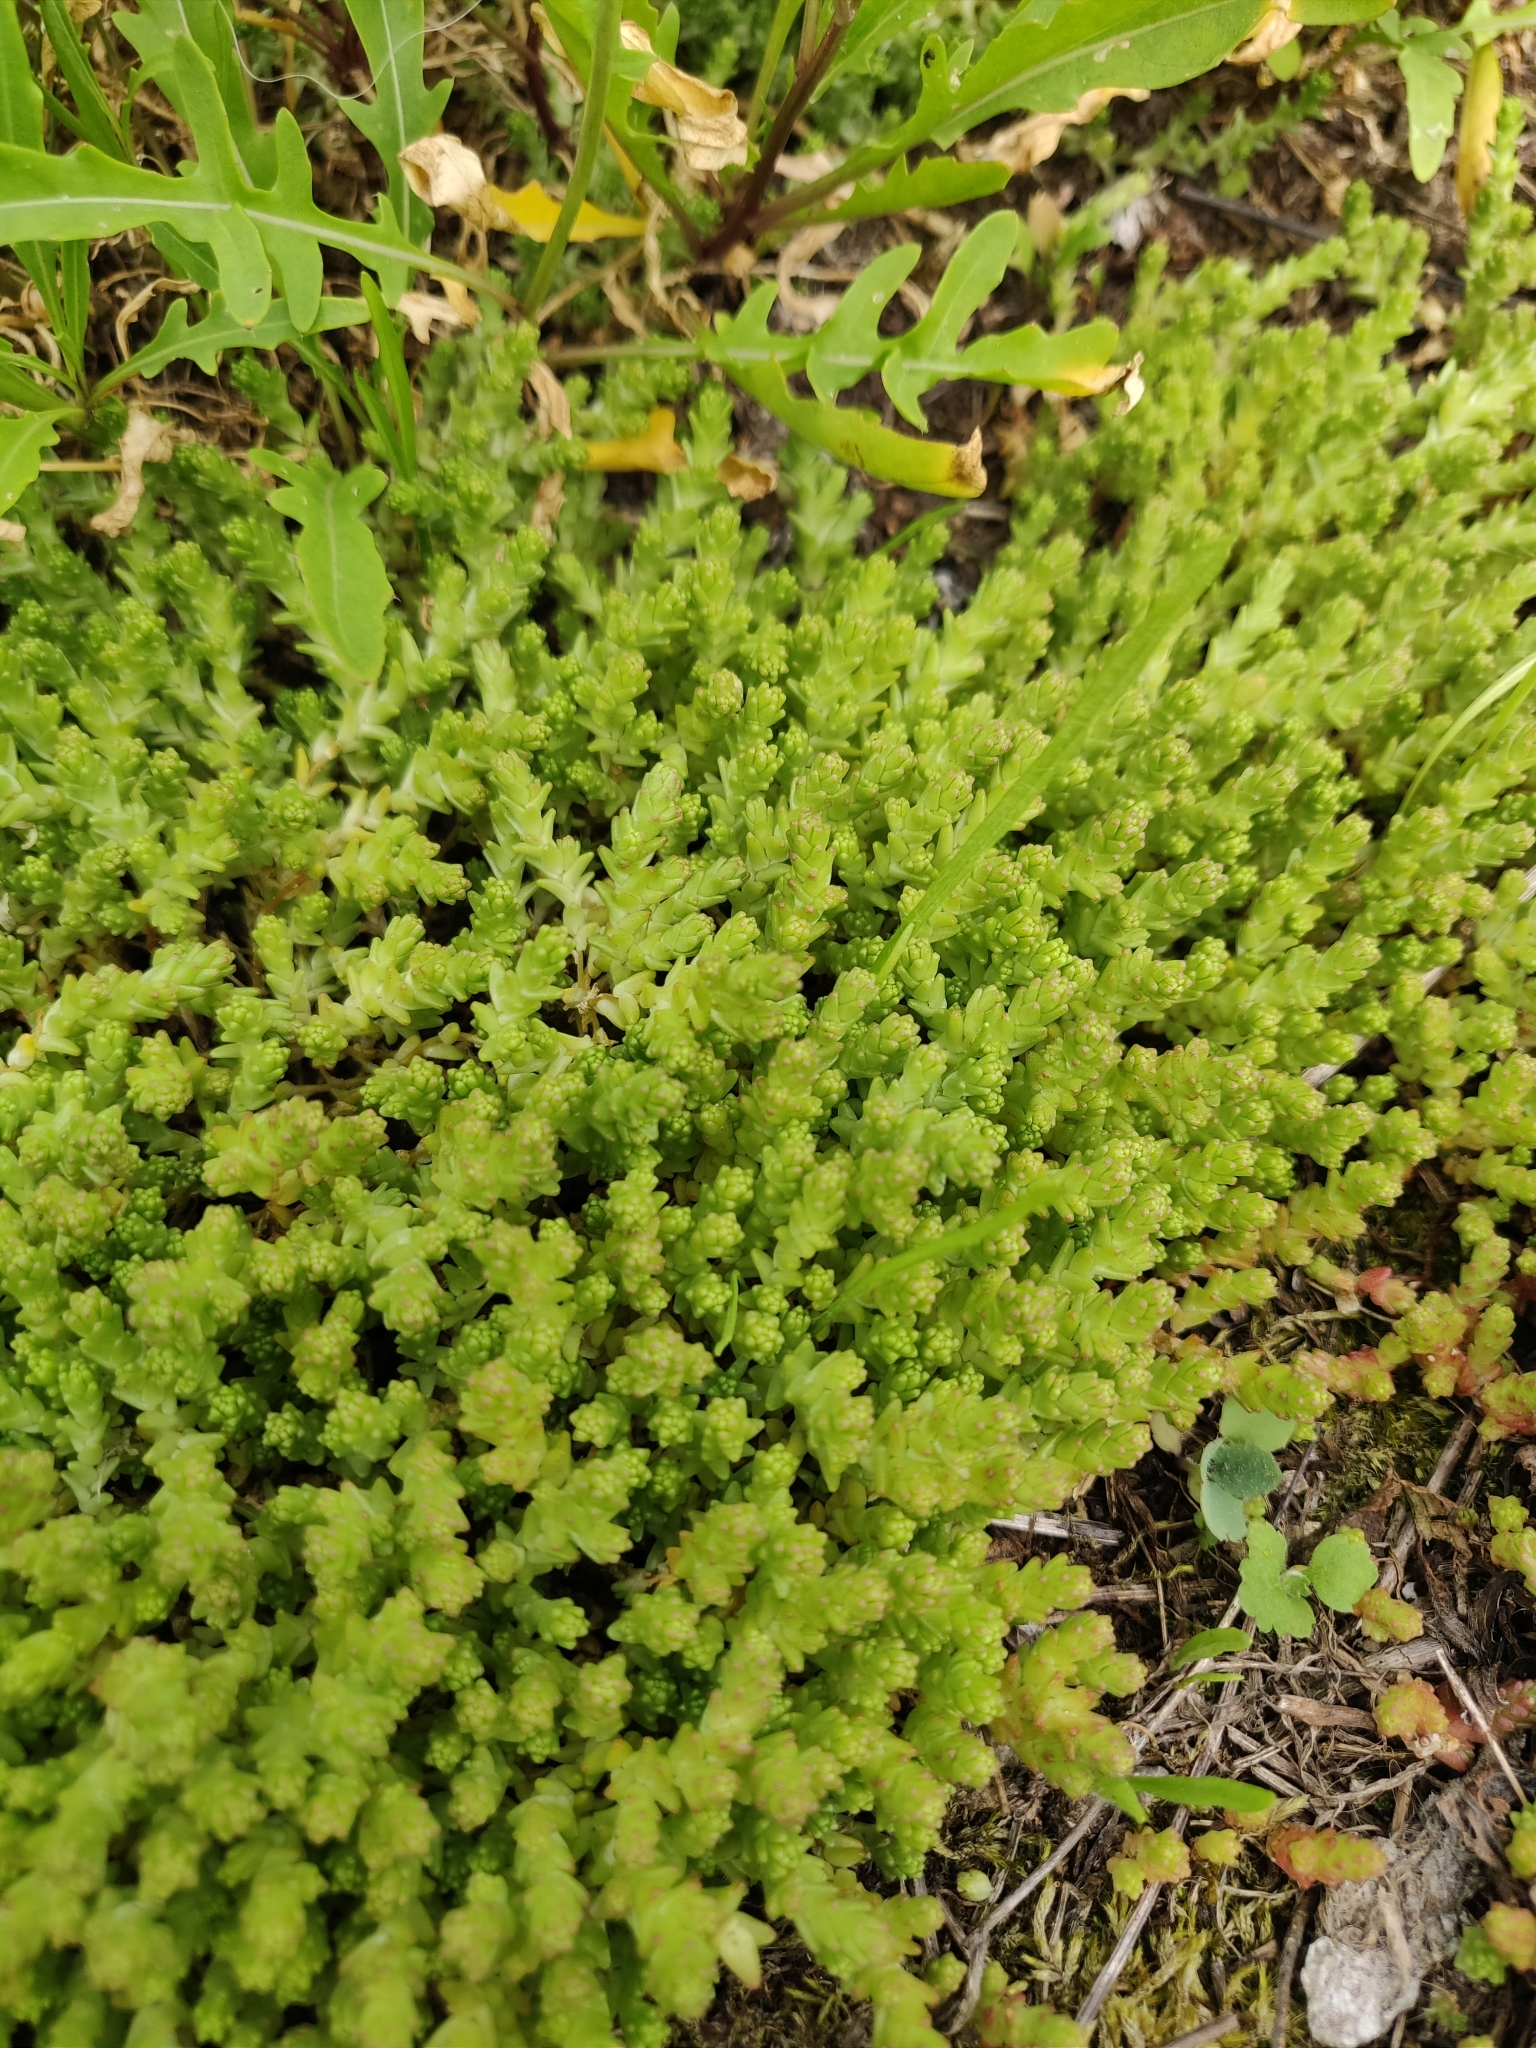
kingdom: Plantae
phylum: Tracheophyta
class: Magnoliopsida
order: Saxifragales
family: Crassulaceae
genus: Sedum
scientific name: Sedum album
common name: White stonecrop
